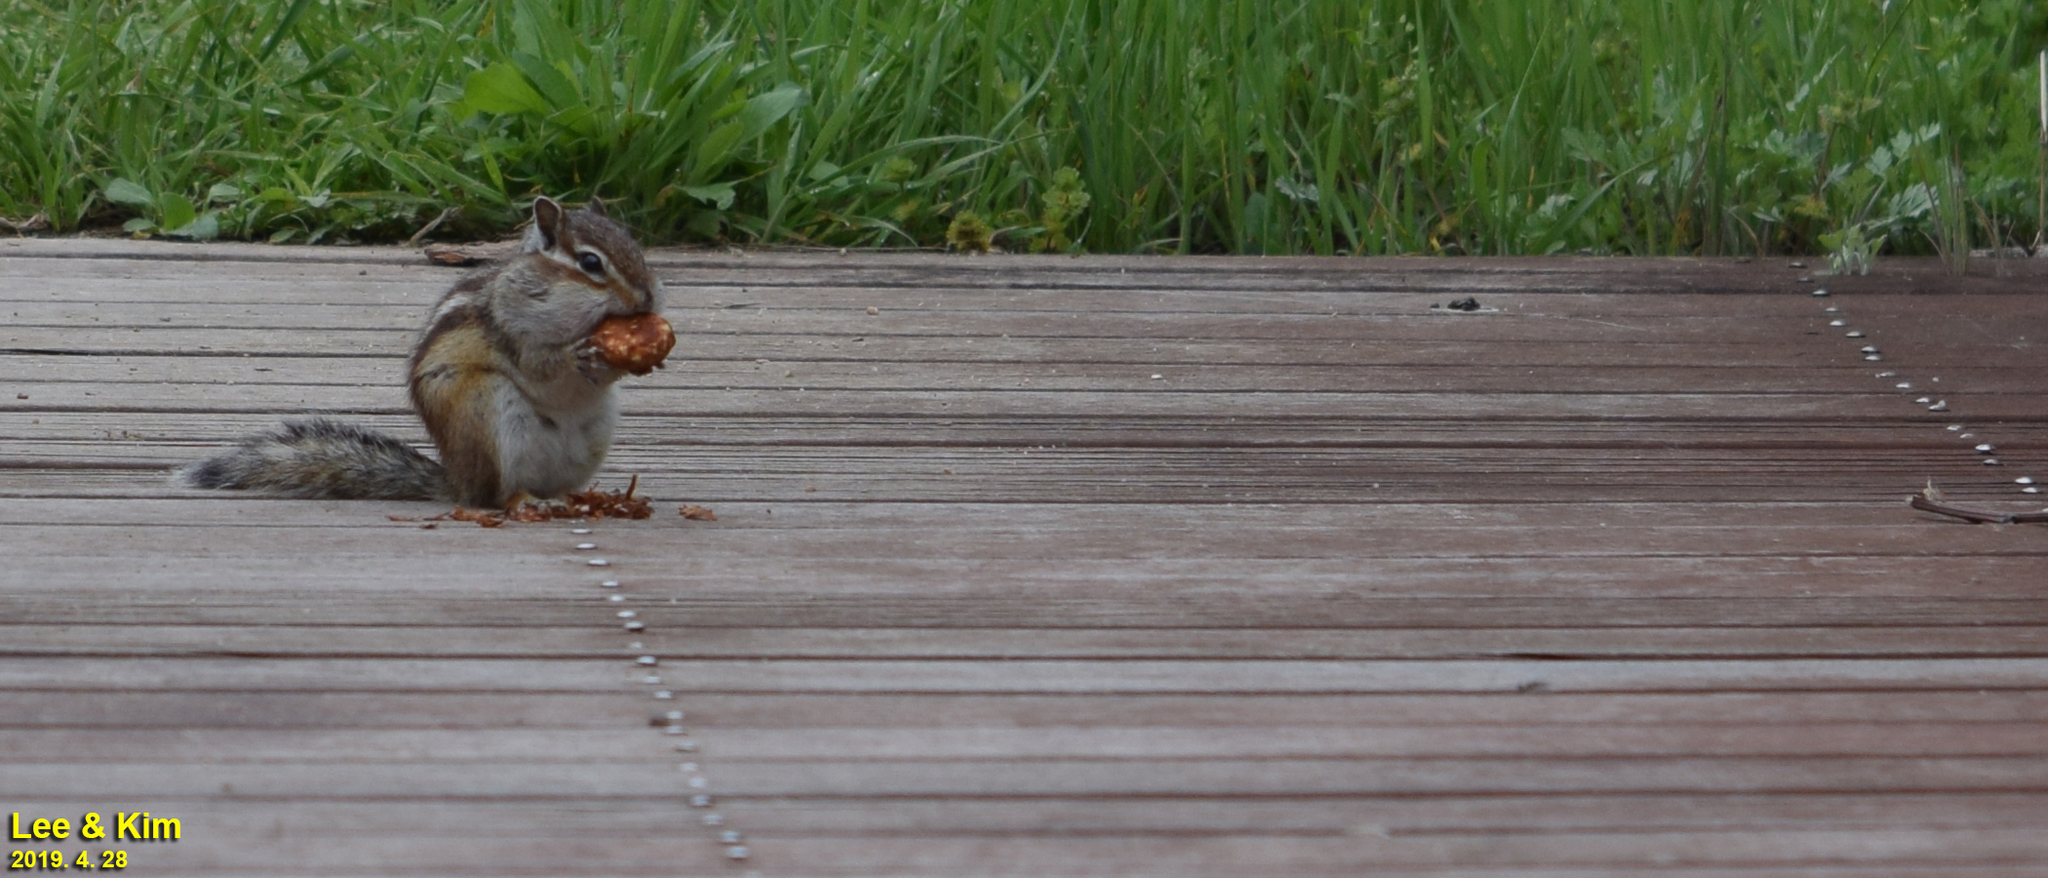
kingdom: Animalia
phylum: Chordata
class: Mammalia
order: Rodentia
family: Sciuridae
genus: Tamias
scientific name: Tamias sibiricus
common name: Siberian chipmunk
